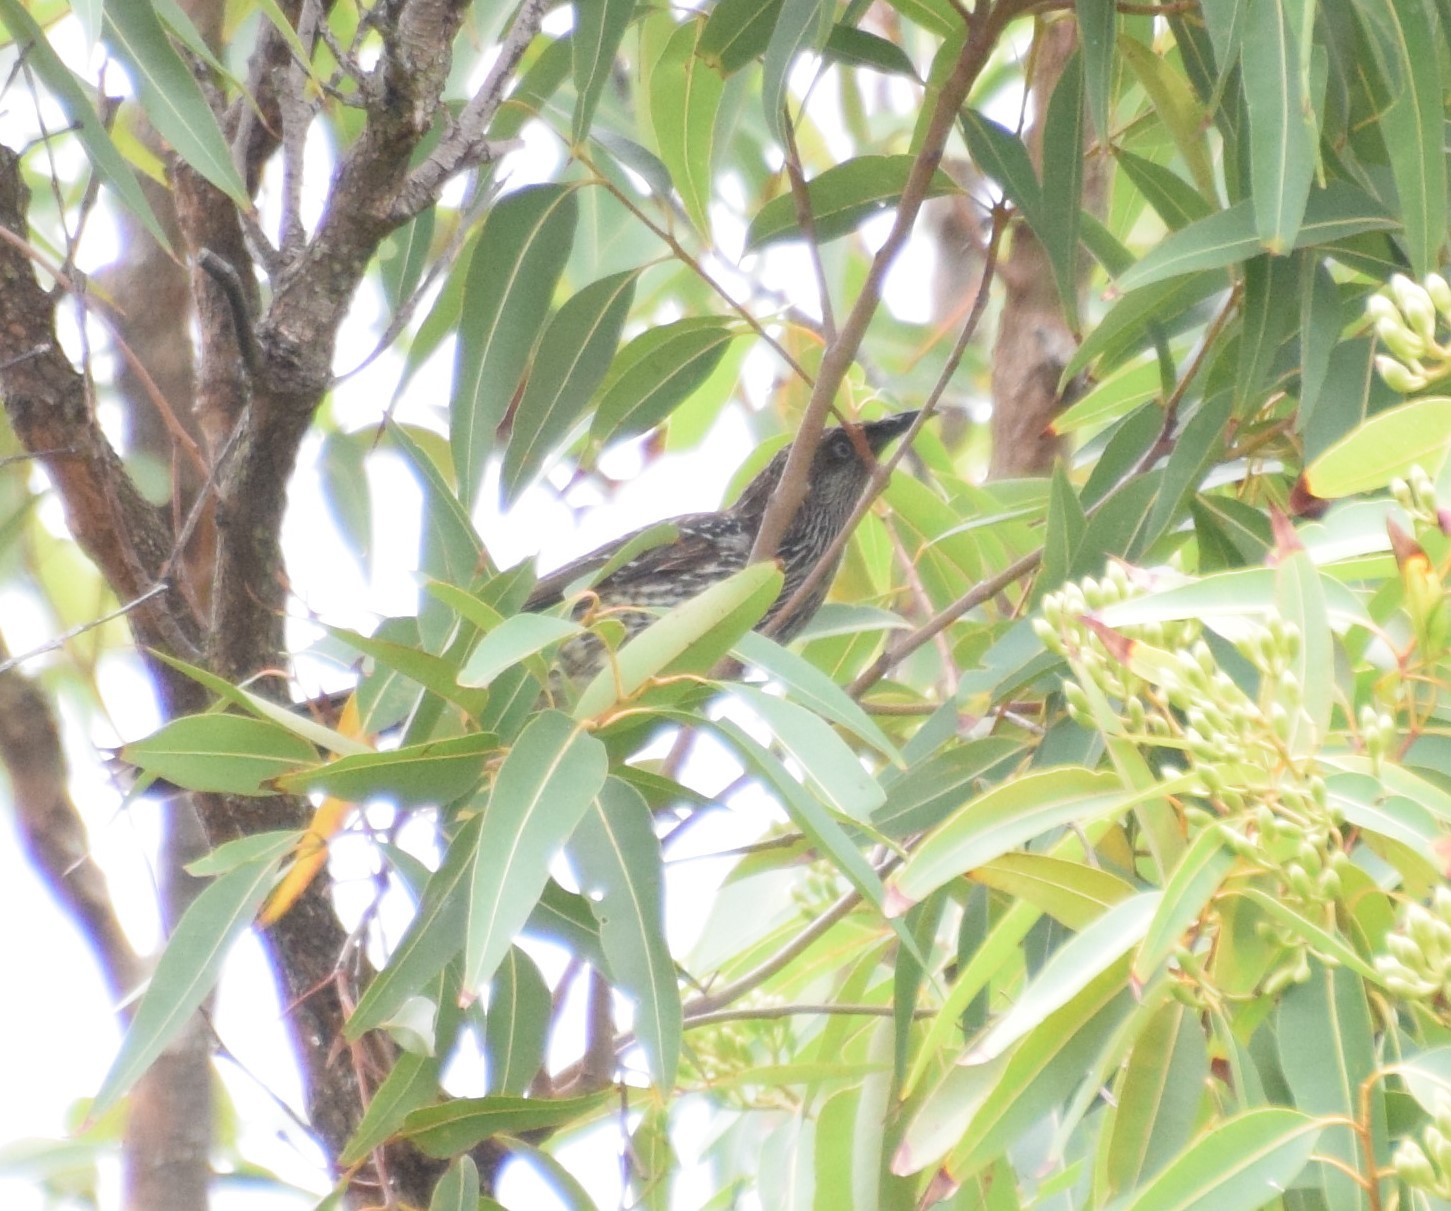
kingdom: Animalia
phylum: Chordata
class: Aves
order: Passeriformes
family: Meliphagidae
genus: Anthochaera
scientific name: Anthochaera chrysoptera
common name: Little wattlebird
